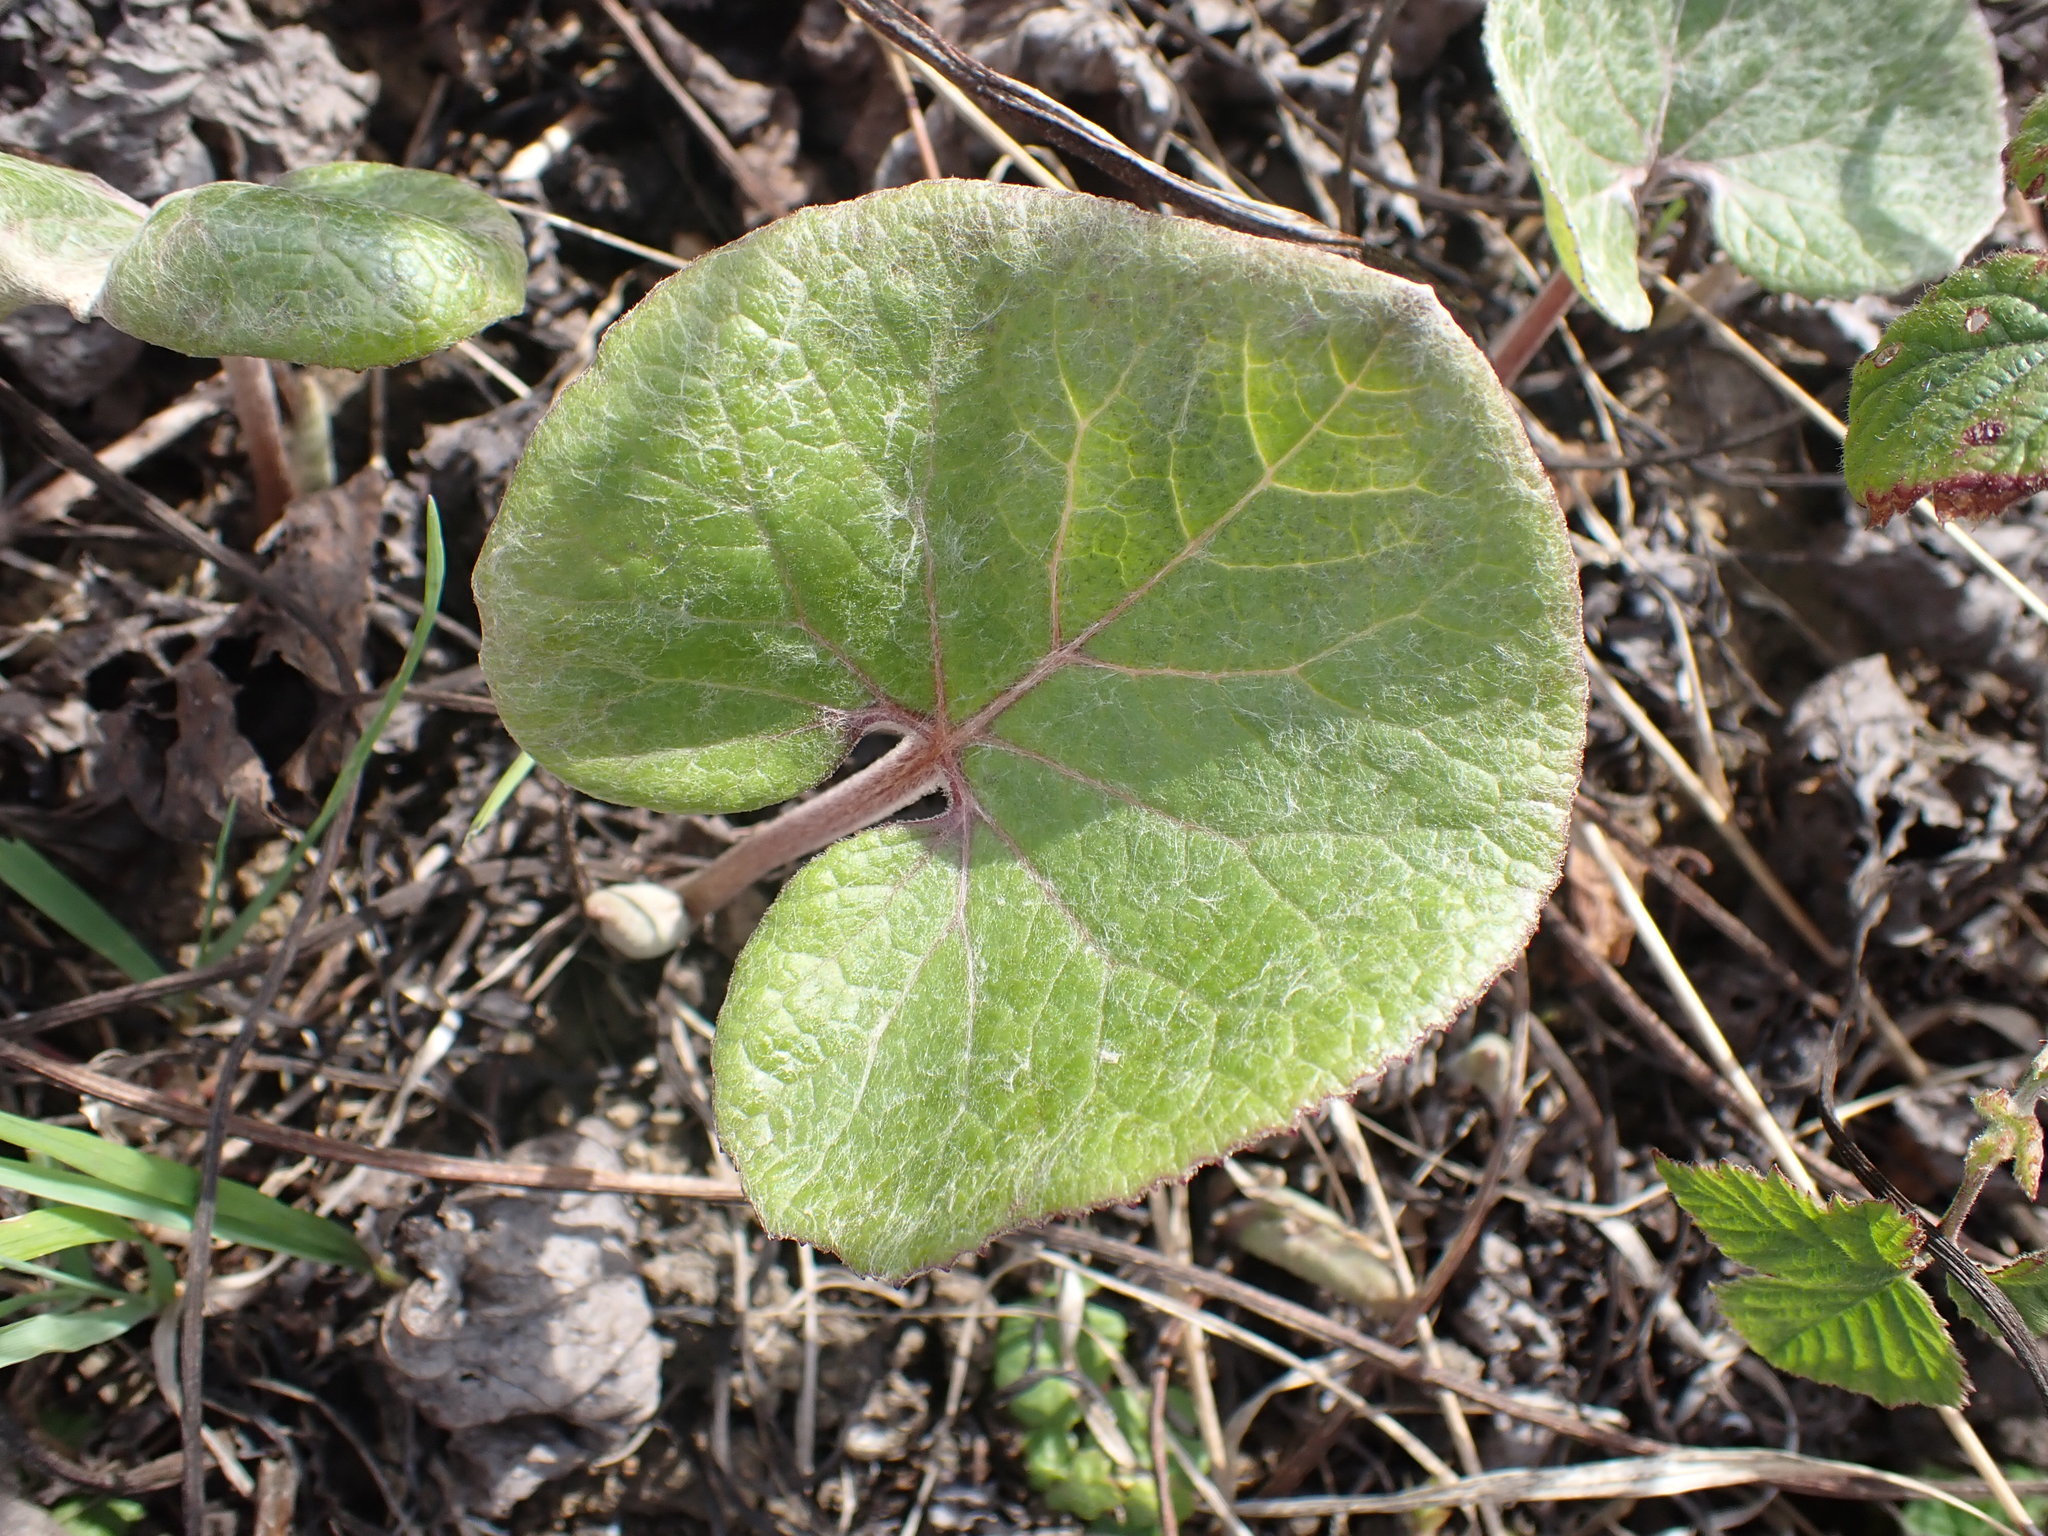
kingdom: Plantae
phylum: Tracheophyta
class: Magnoliopsida
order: Asterales
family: Asteraceae
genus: Petasites
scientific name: Petasites pyrenaicus
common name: Winter heliotrope
